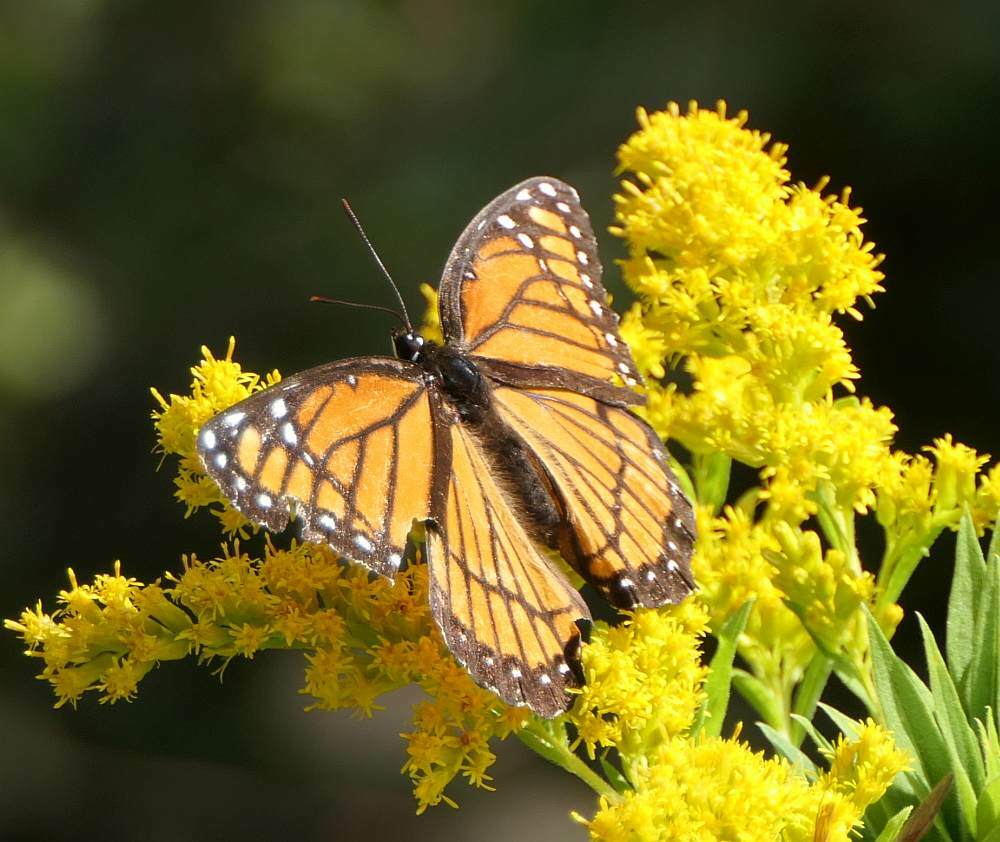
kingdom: Animalia
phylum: Arthropoda
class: Insecta
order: Lepidoptera
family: Nymphalidae
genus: Limenitis
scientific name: Limenitis archippus
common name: Viceroy
